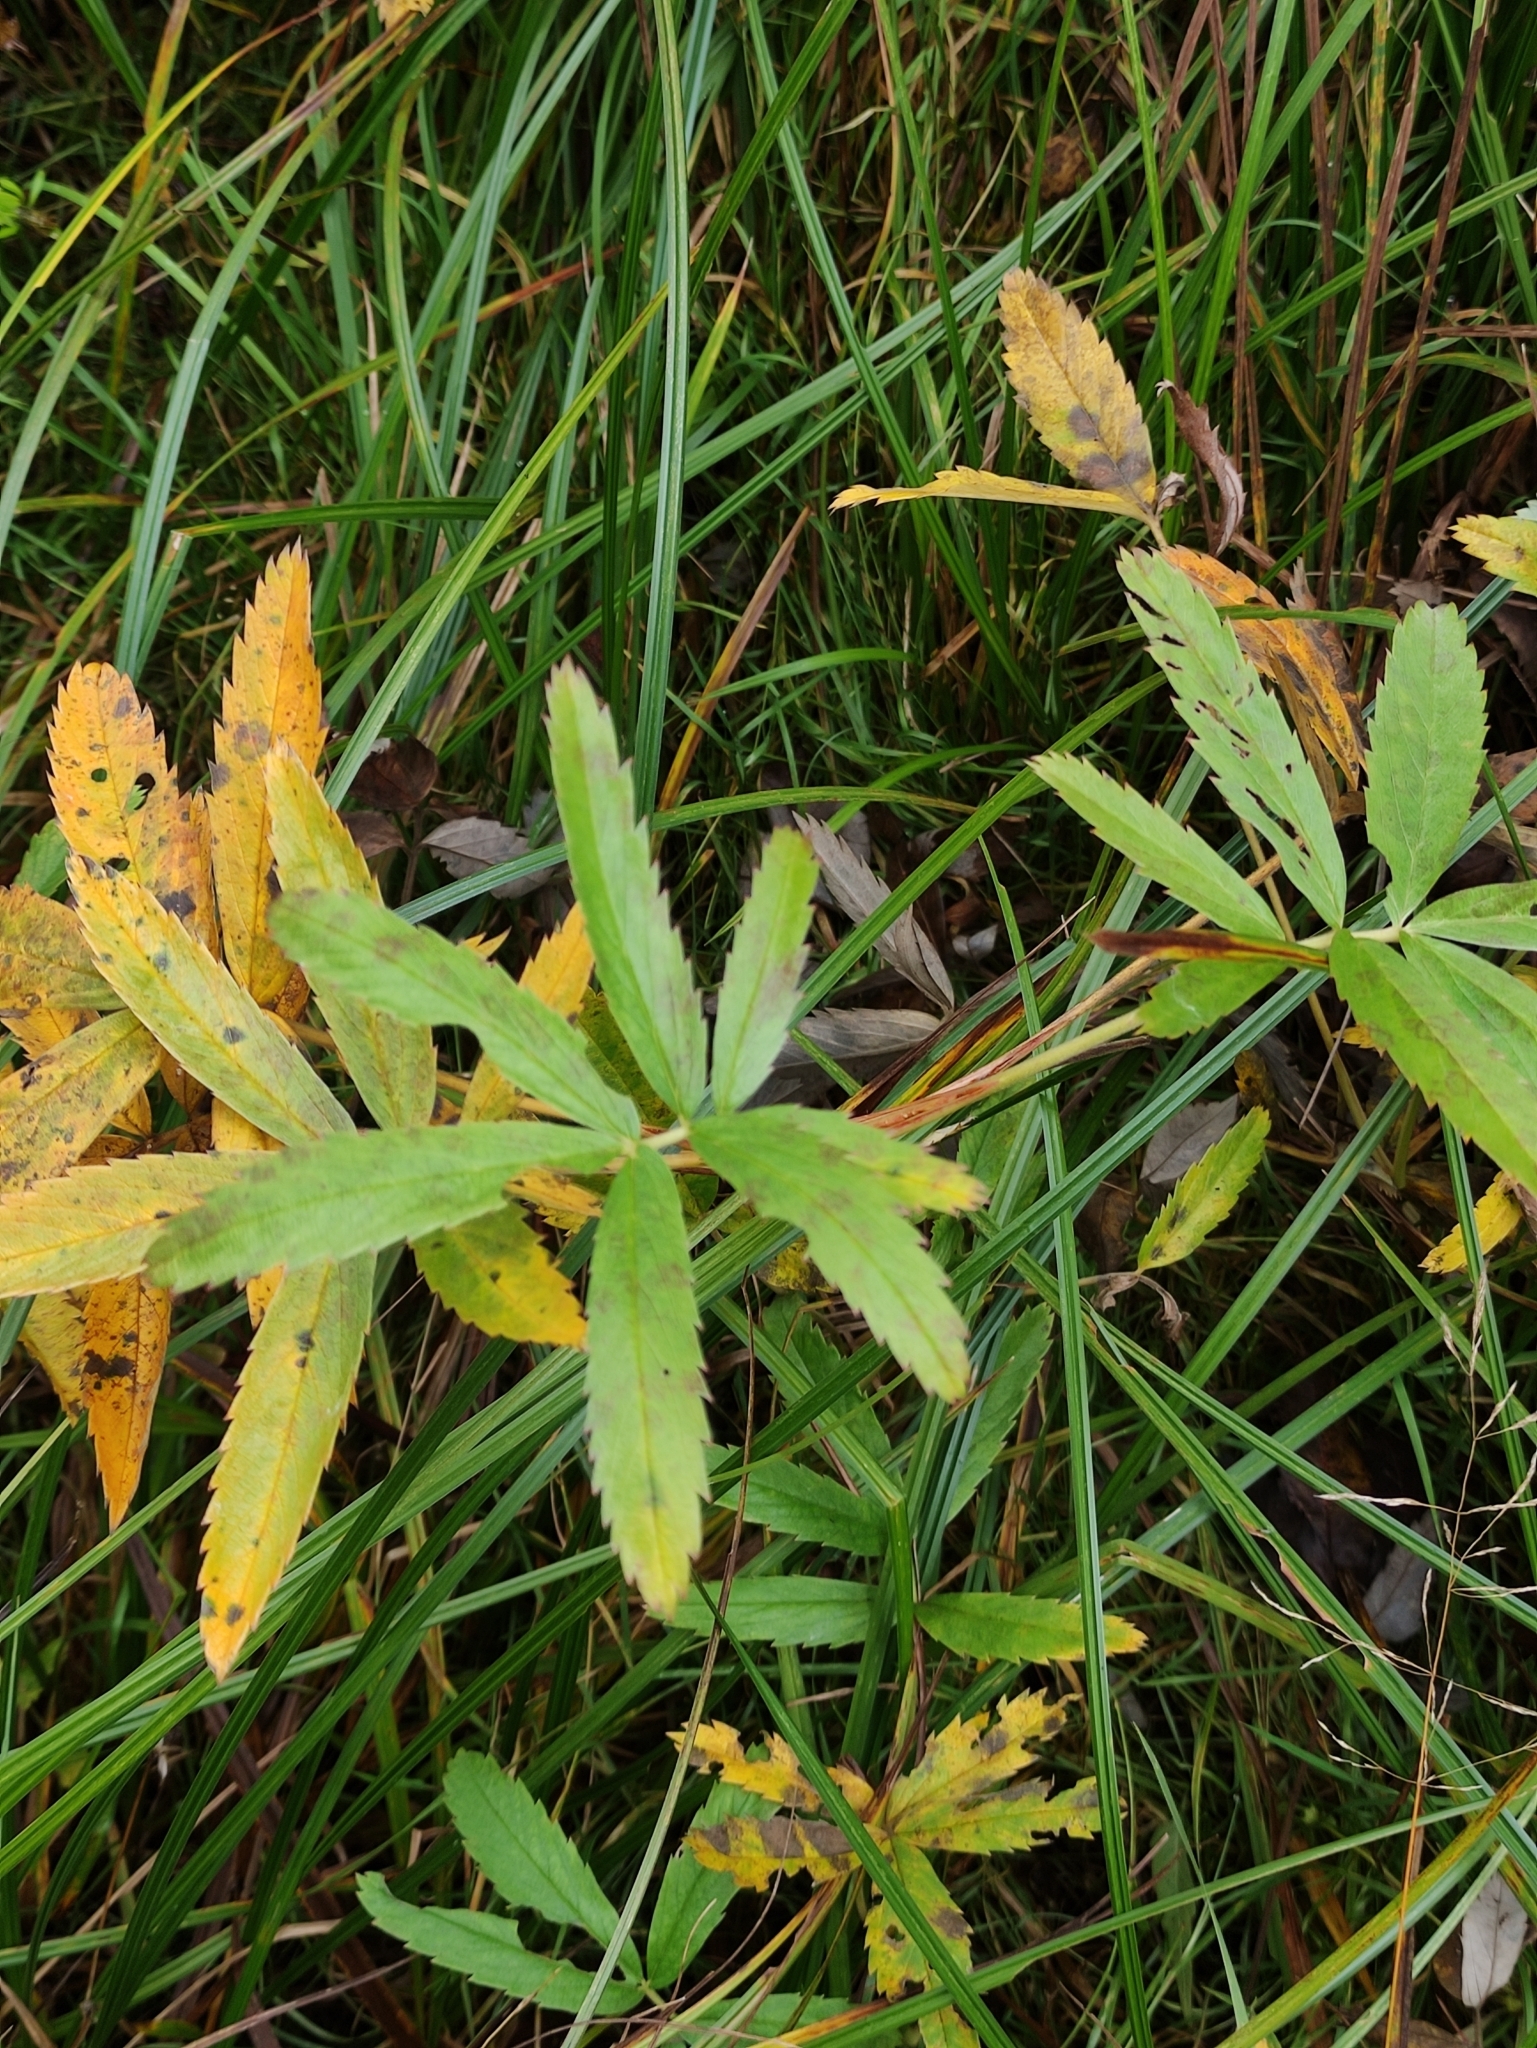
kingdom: Plantae
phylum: Tracheophyta
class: Magnoliopsida
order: Rosales
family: Rosaceae
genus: Comarum
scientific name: Comarum palustre
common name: Marsh cinquefoil
